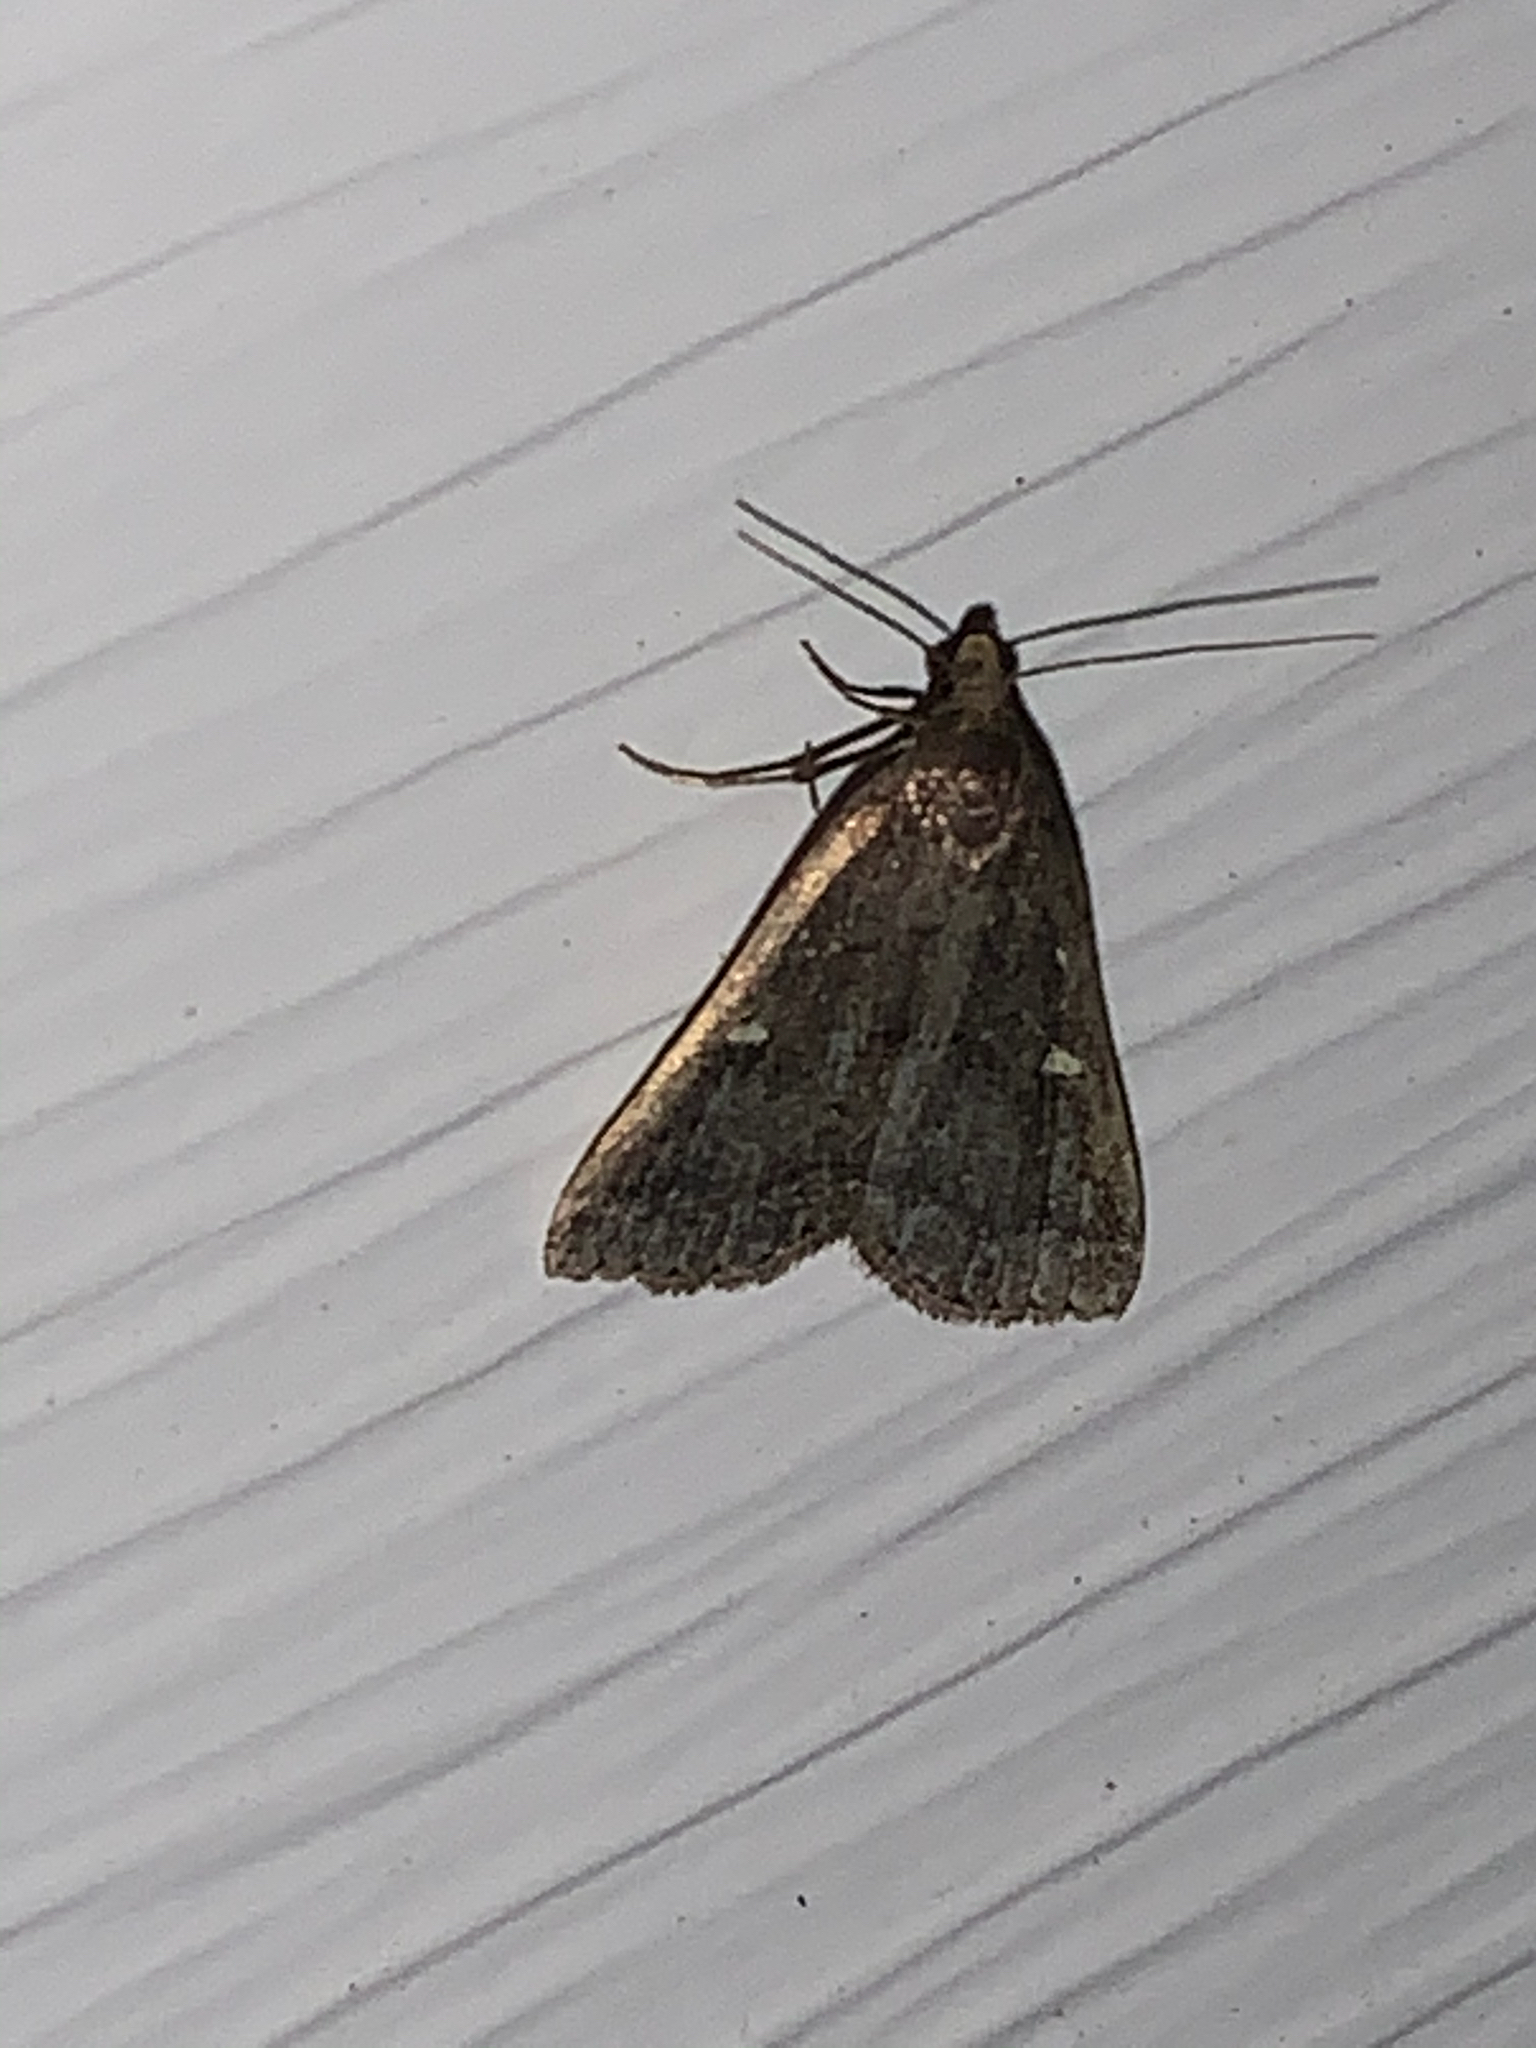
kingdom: Animalia
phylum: Arthropoda
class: Insecta
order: Lepidoptera
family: Erebidae
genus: Tetanolita
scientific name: Tetanolita mynesalis
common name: Smoky tetanolita moth
